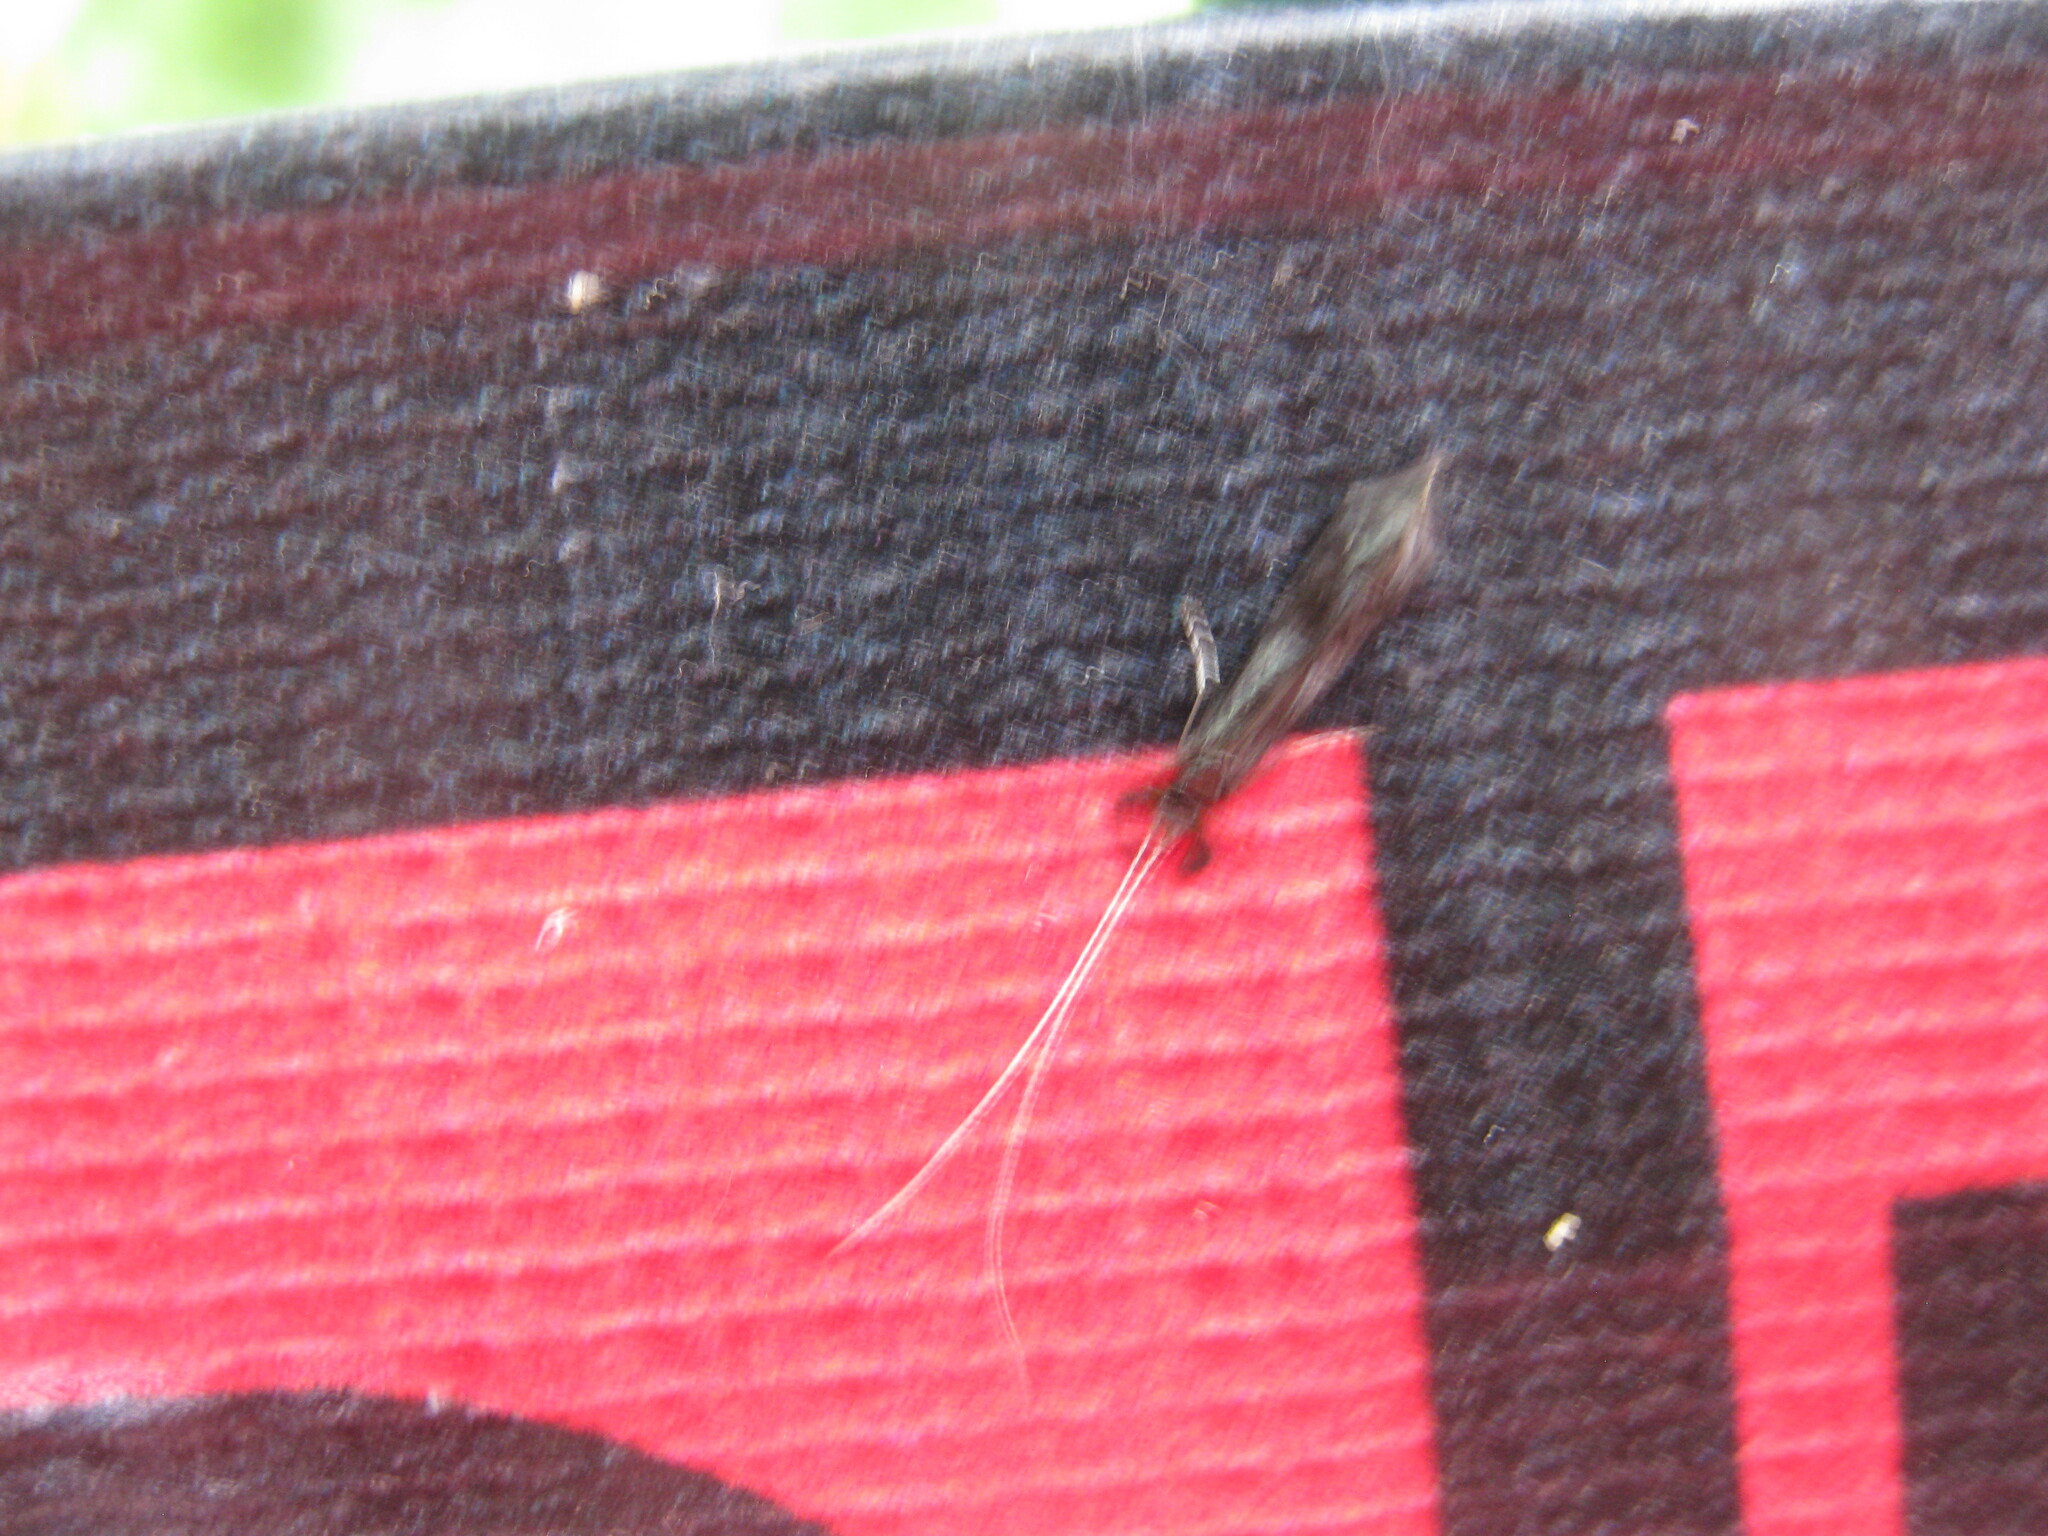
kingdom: Animalia
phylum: Arthropoda
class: Insecta
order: Trichoptera
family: Leptoceridae
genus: Mystacides
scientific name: Mystacides azureus
